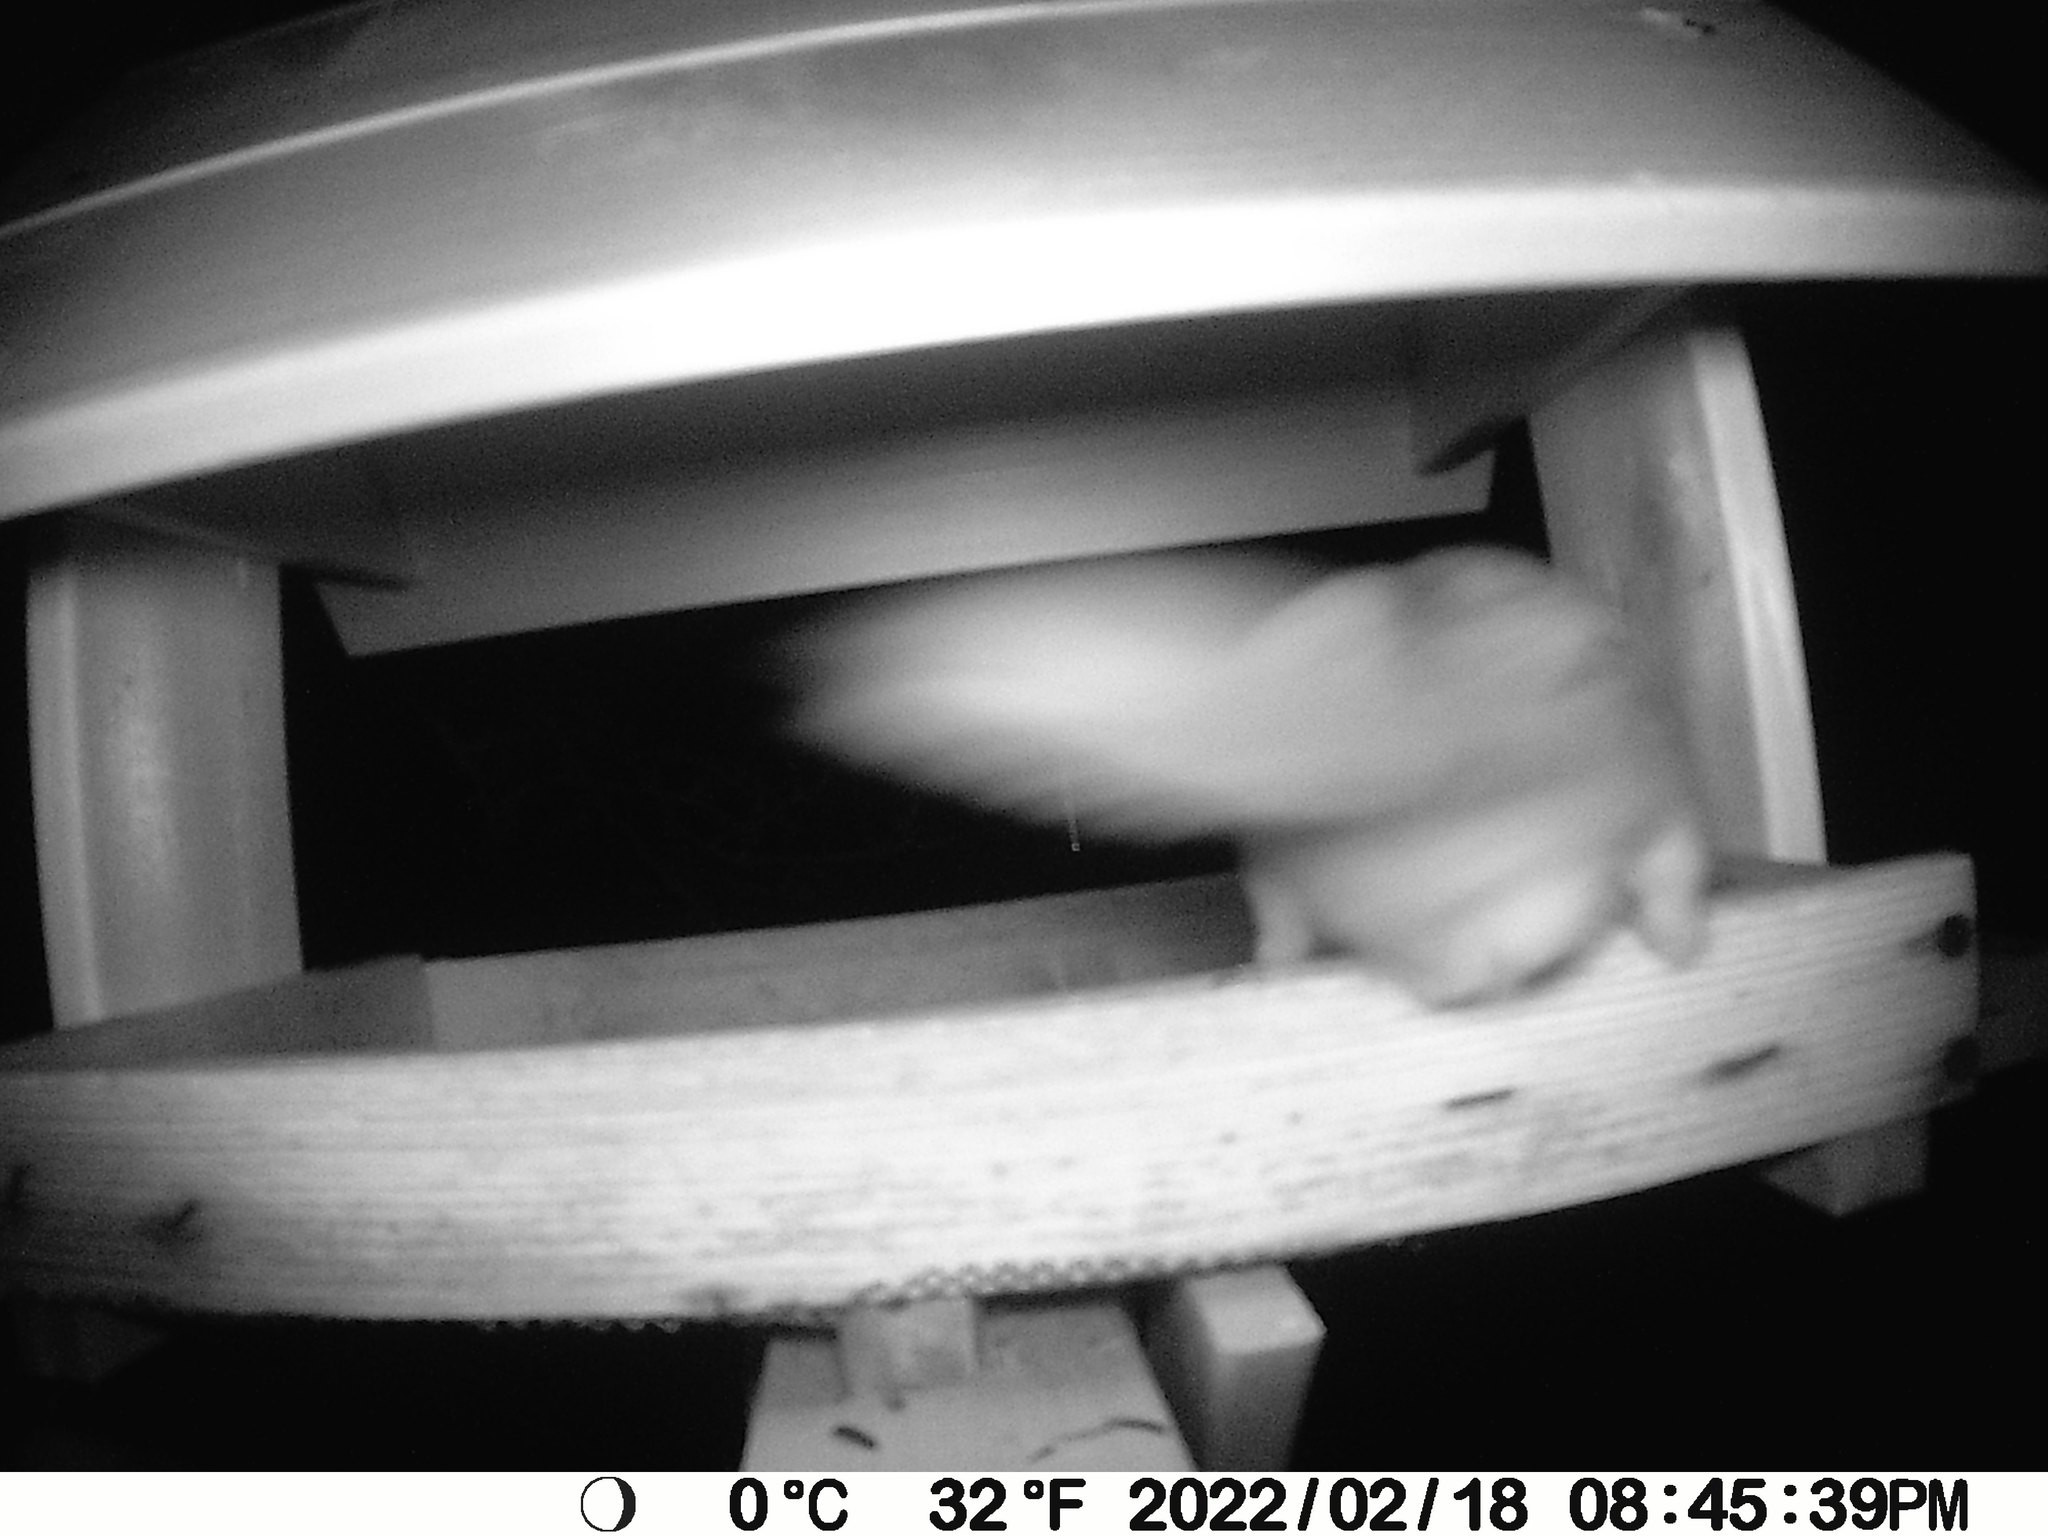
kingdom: Animalia
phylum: Chordata
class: Mammalia
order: Rodentia
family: Sciuridae
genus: Glaucomys
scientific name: Glaucomys sabrinus
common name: Northern flying squirrel
